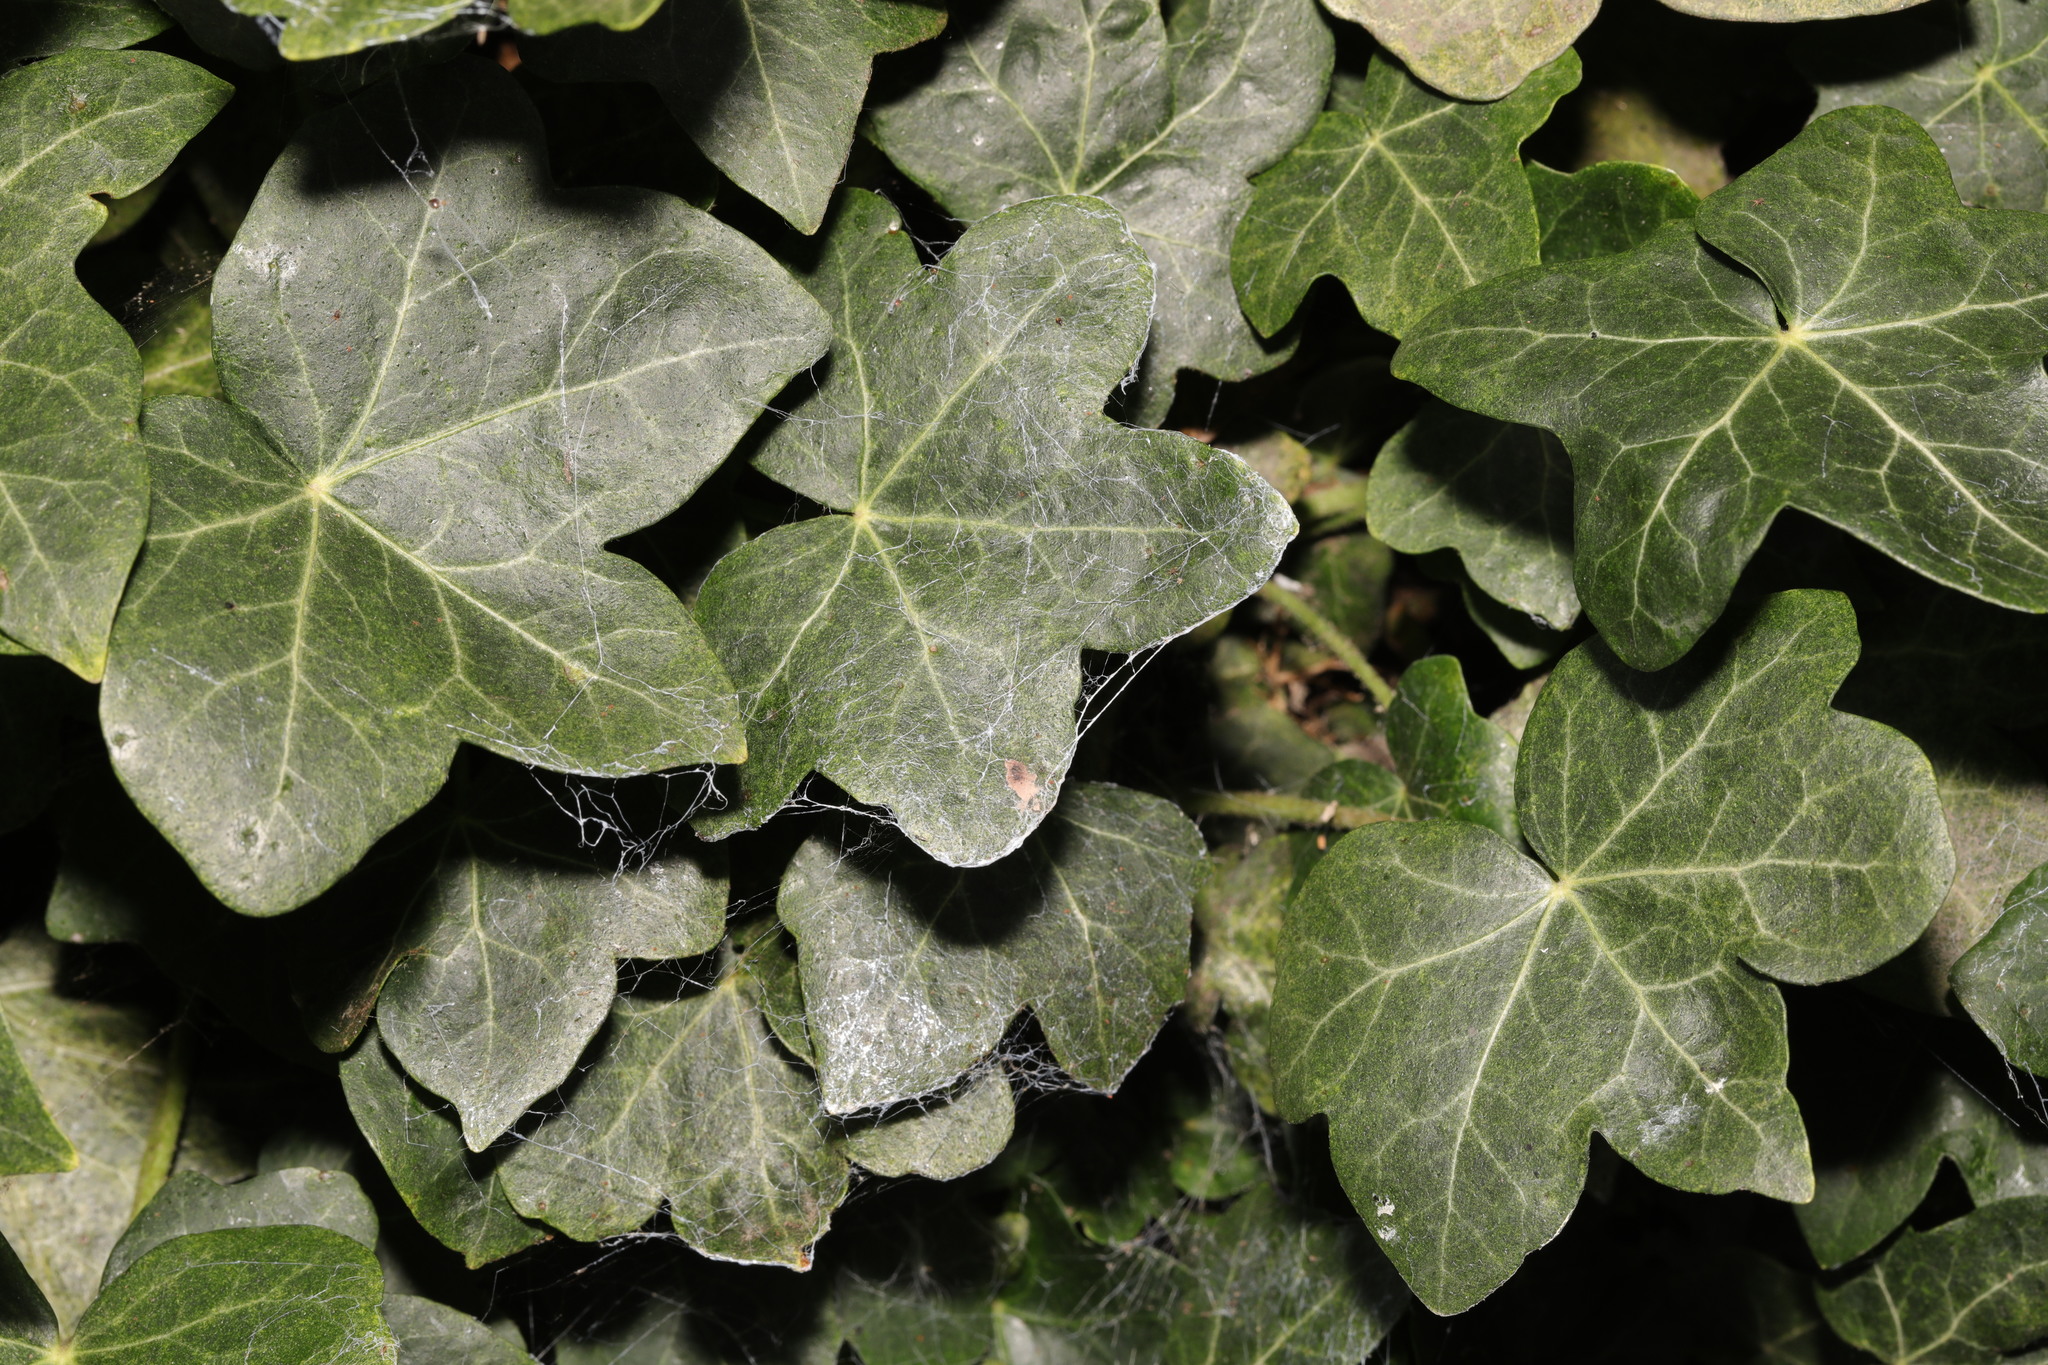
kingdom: Plantae
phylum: Tracheophyta
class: Magnoliopsida
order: Apiales
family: Araliaceae
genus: Hedera
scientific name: Hedera helix
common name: Ivy
